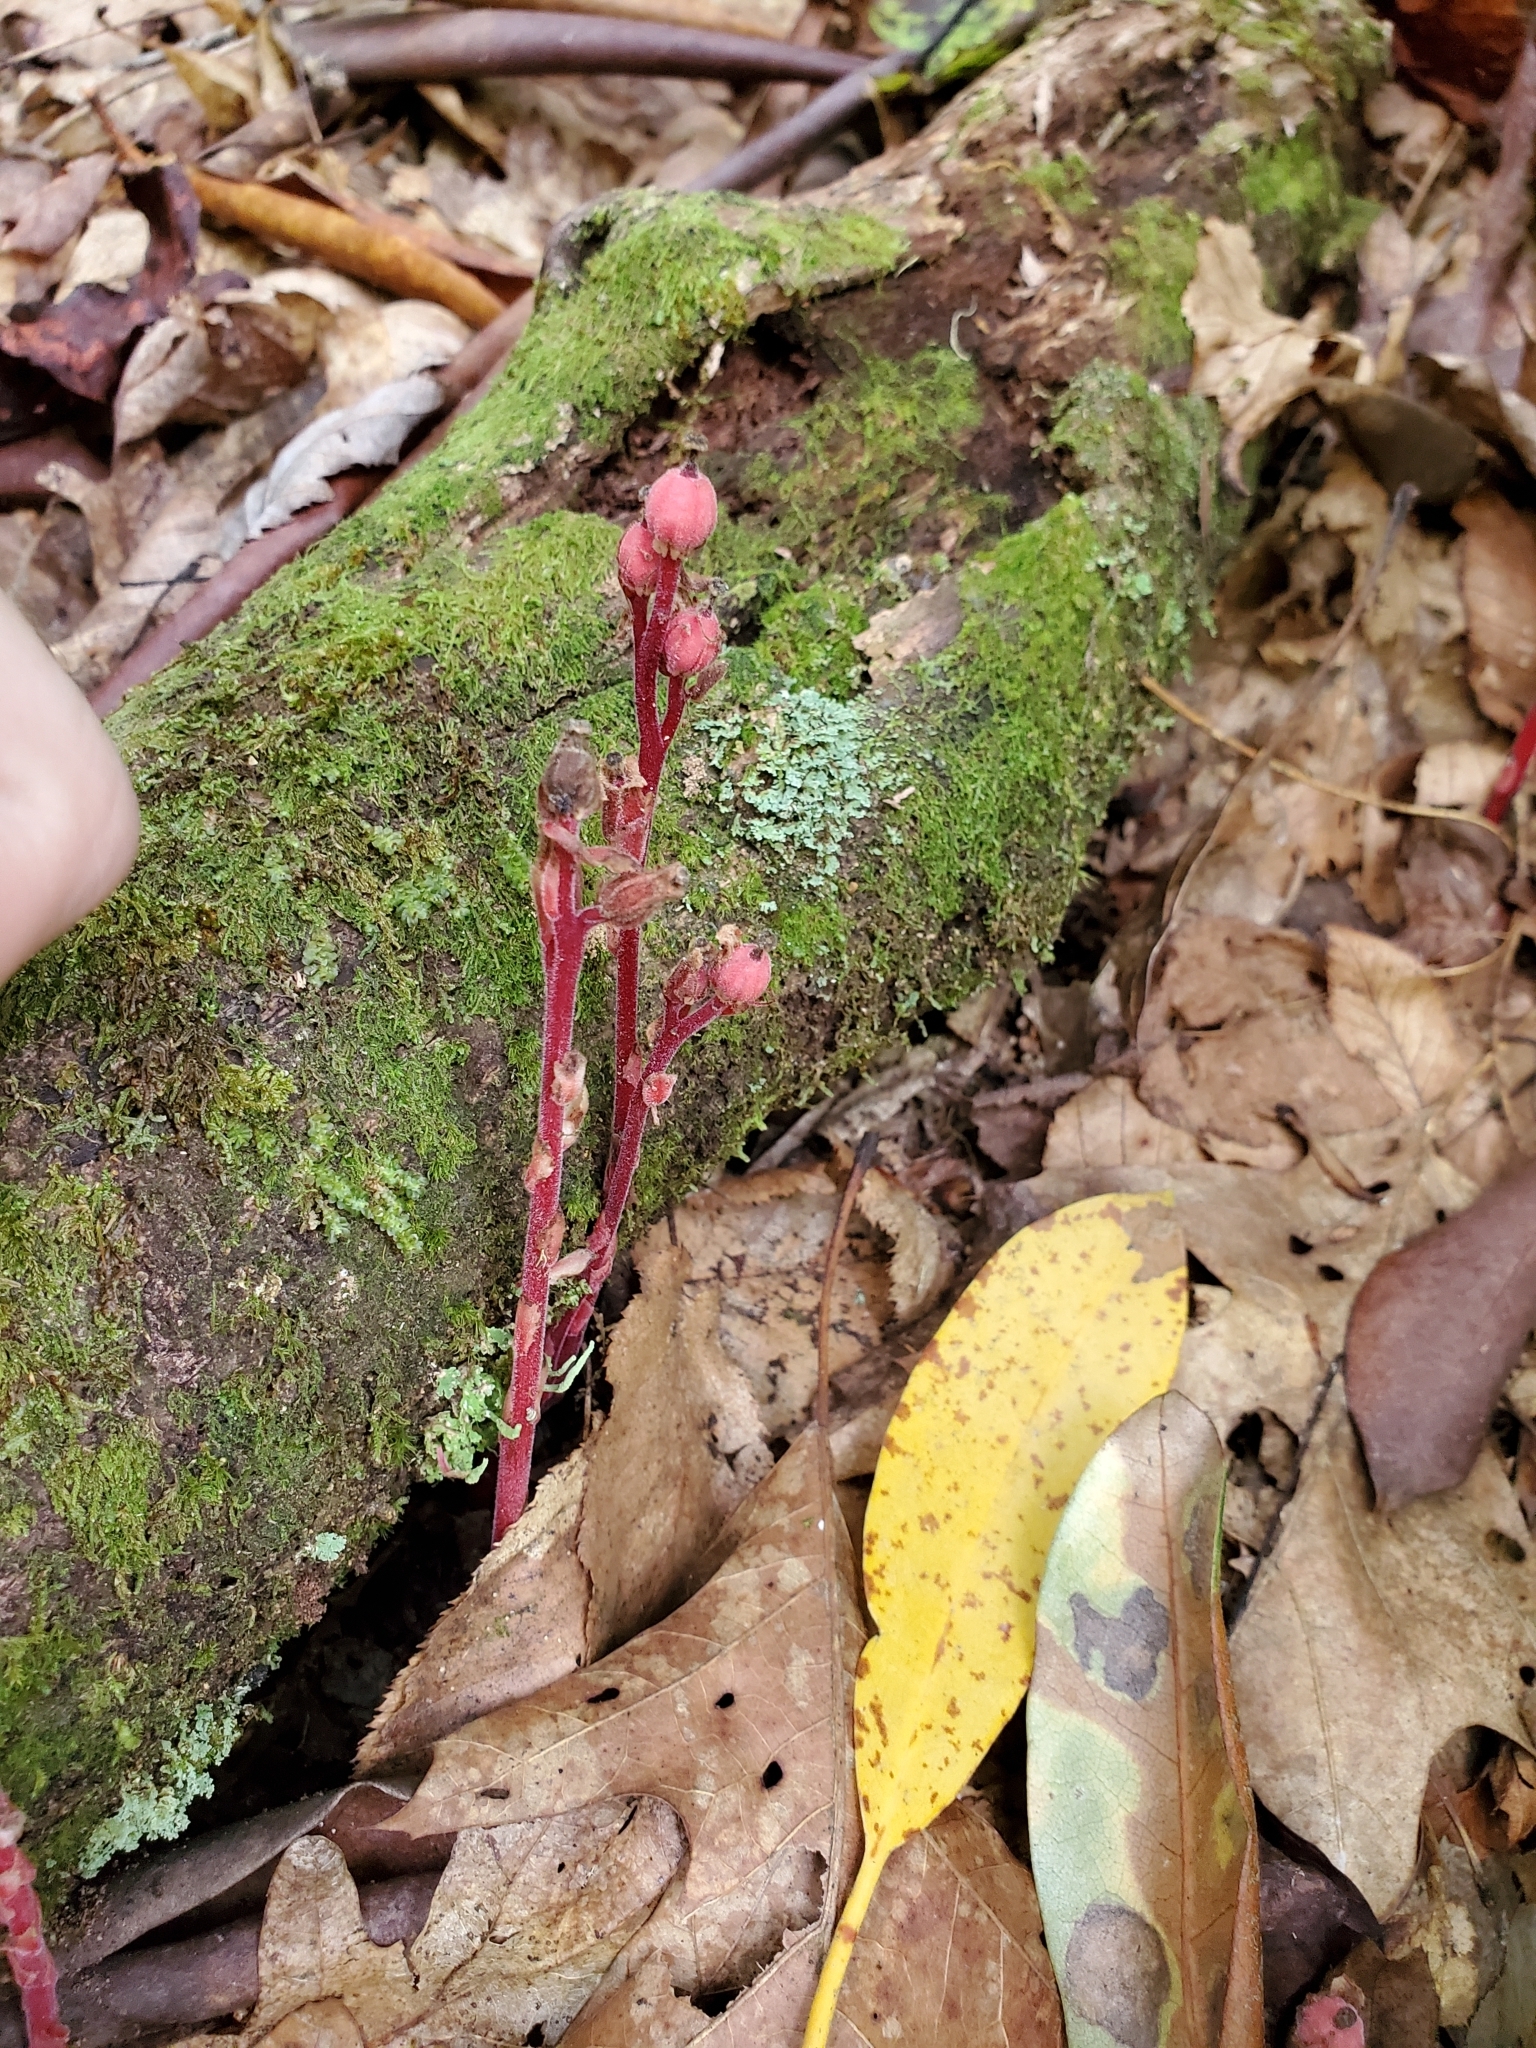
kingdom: Plantae
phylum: Tracheophyta
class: Magnoliopsida
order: Ericales
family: Ericaceae
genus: Hypopitys
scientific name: Hypopitys monotropa
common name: Yellow bird's-nest
